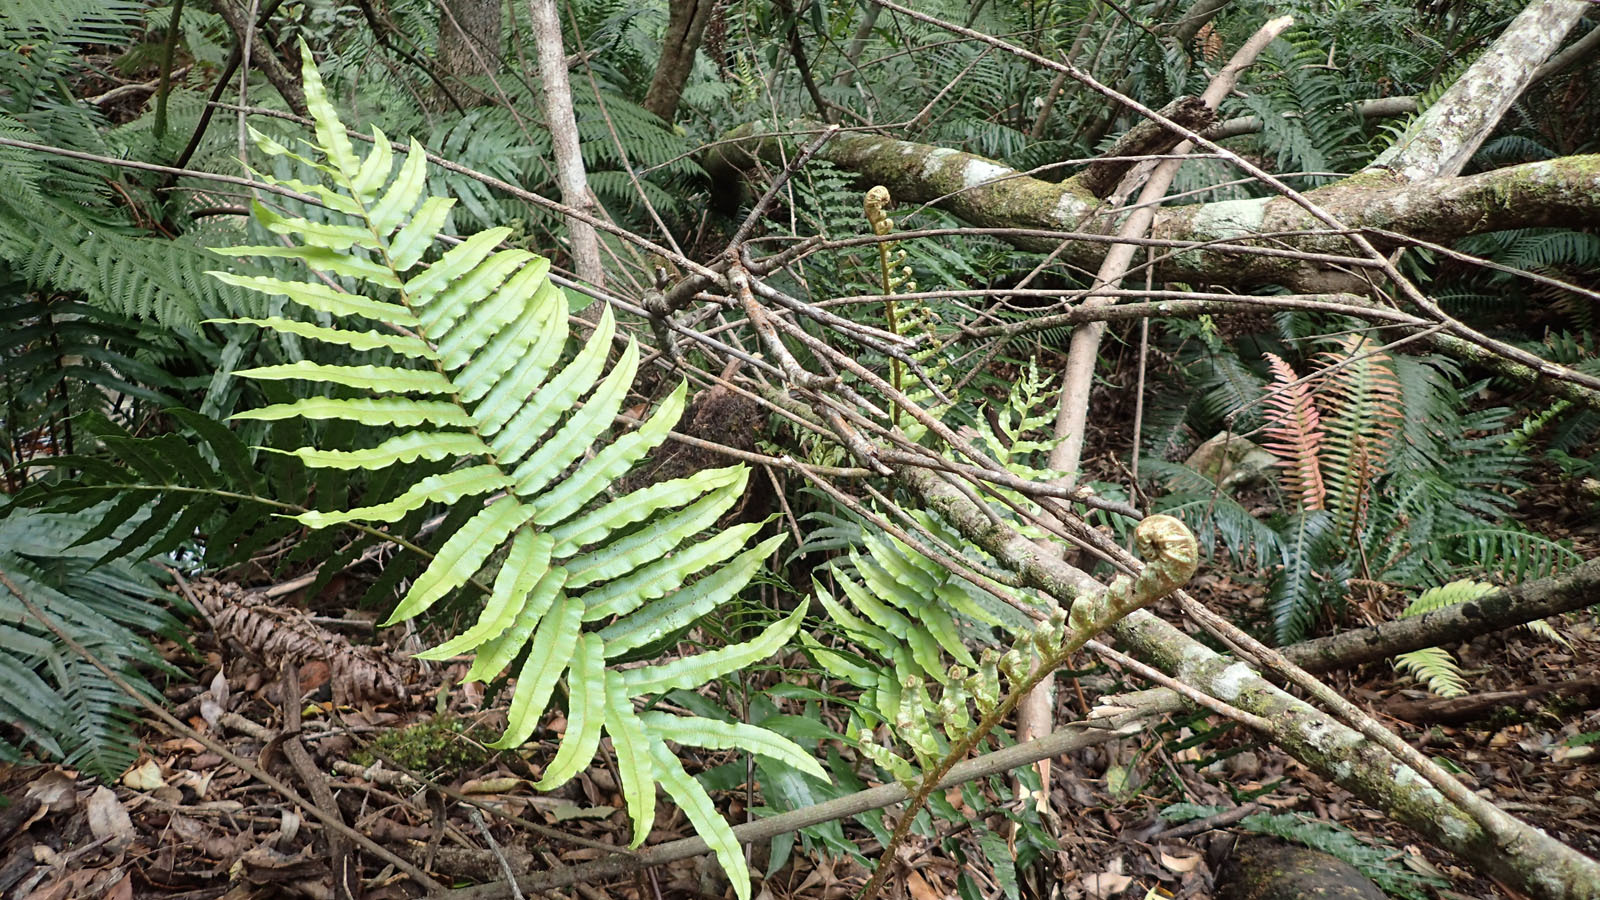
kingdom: Plantae
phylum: Tracheophyta
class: Polypodiopsida
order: Polypodiales
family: Blechnaceae
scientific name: Blechnaceae
